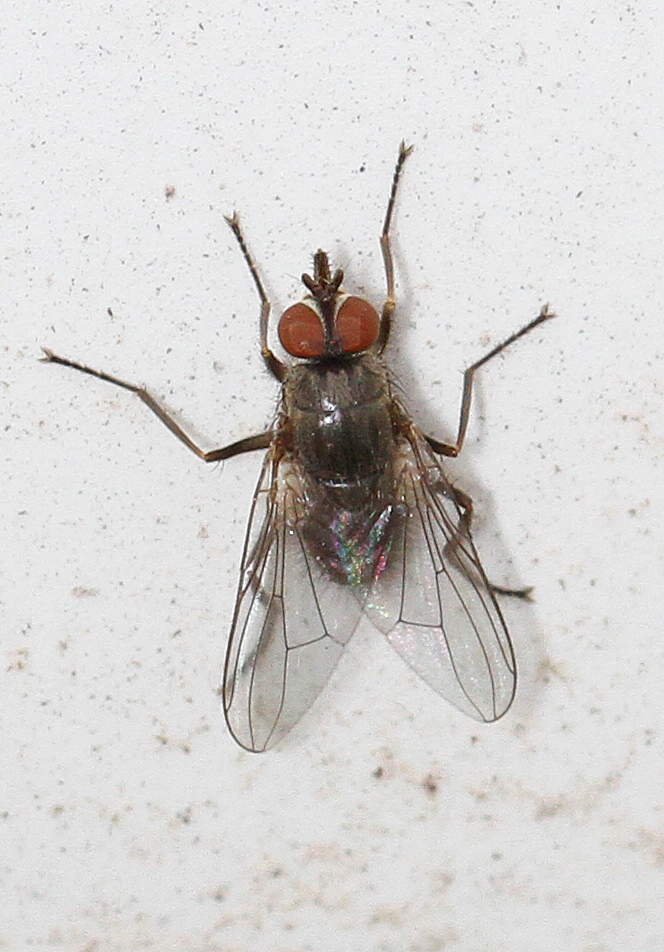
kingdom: Animalia
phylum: Arthropoda
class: Insecta
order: Diptera
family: Muscidae
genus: Haematobia
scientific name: Haematobia irritans
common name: Horn fly
